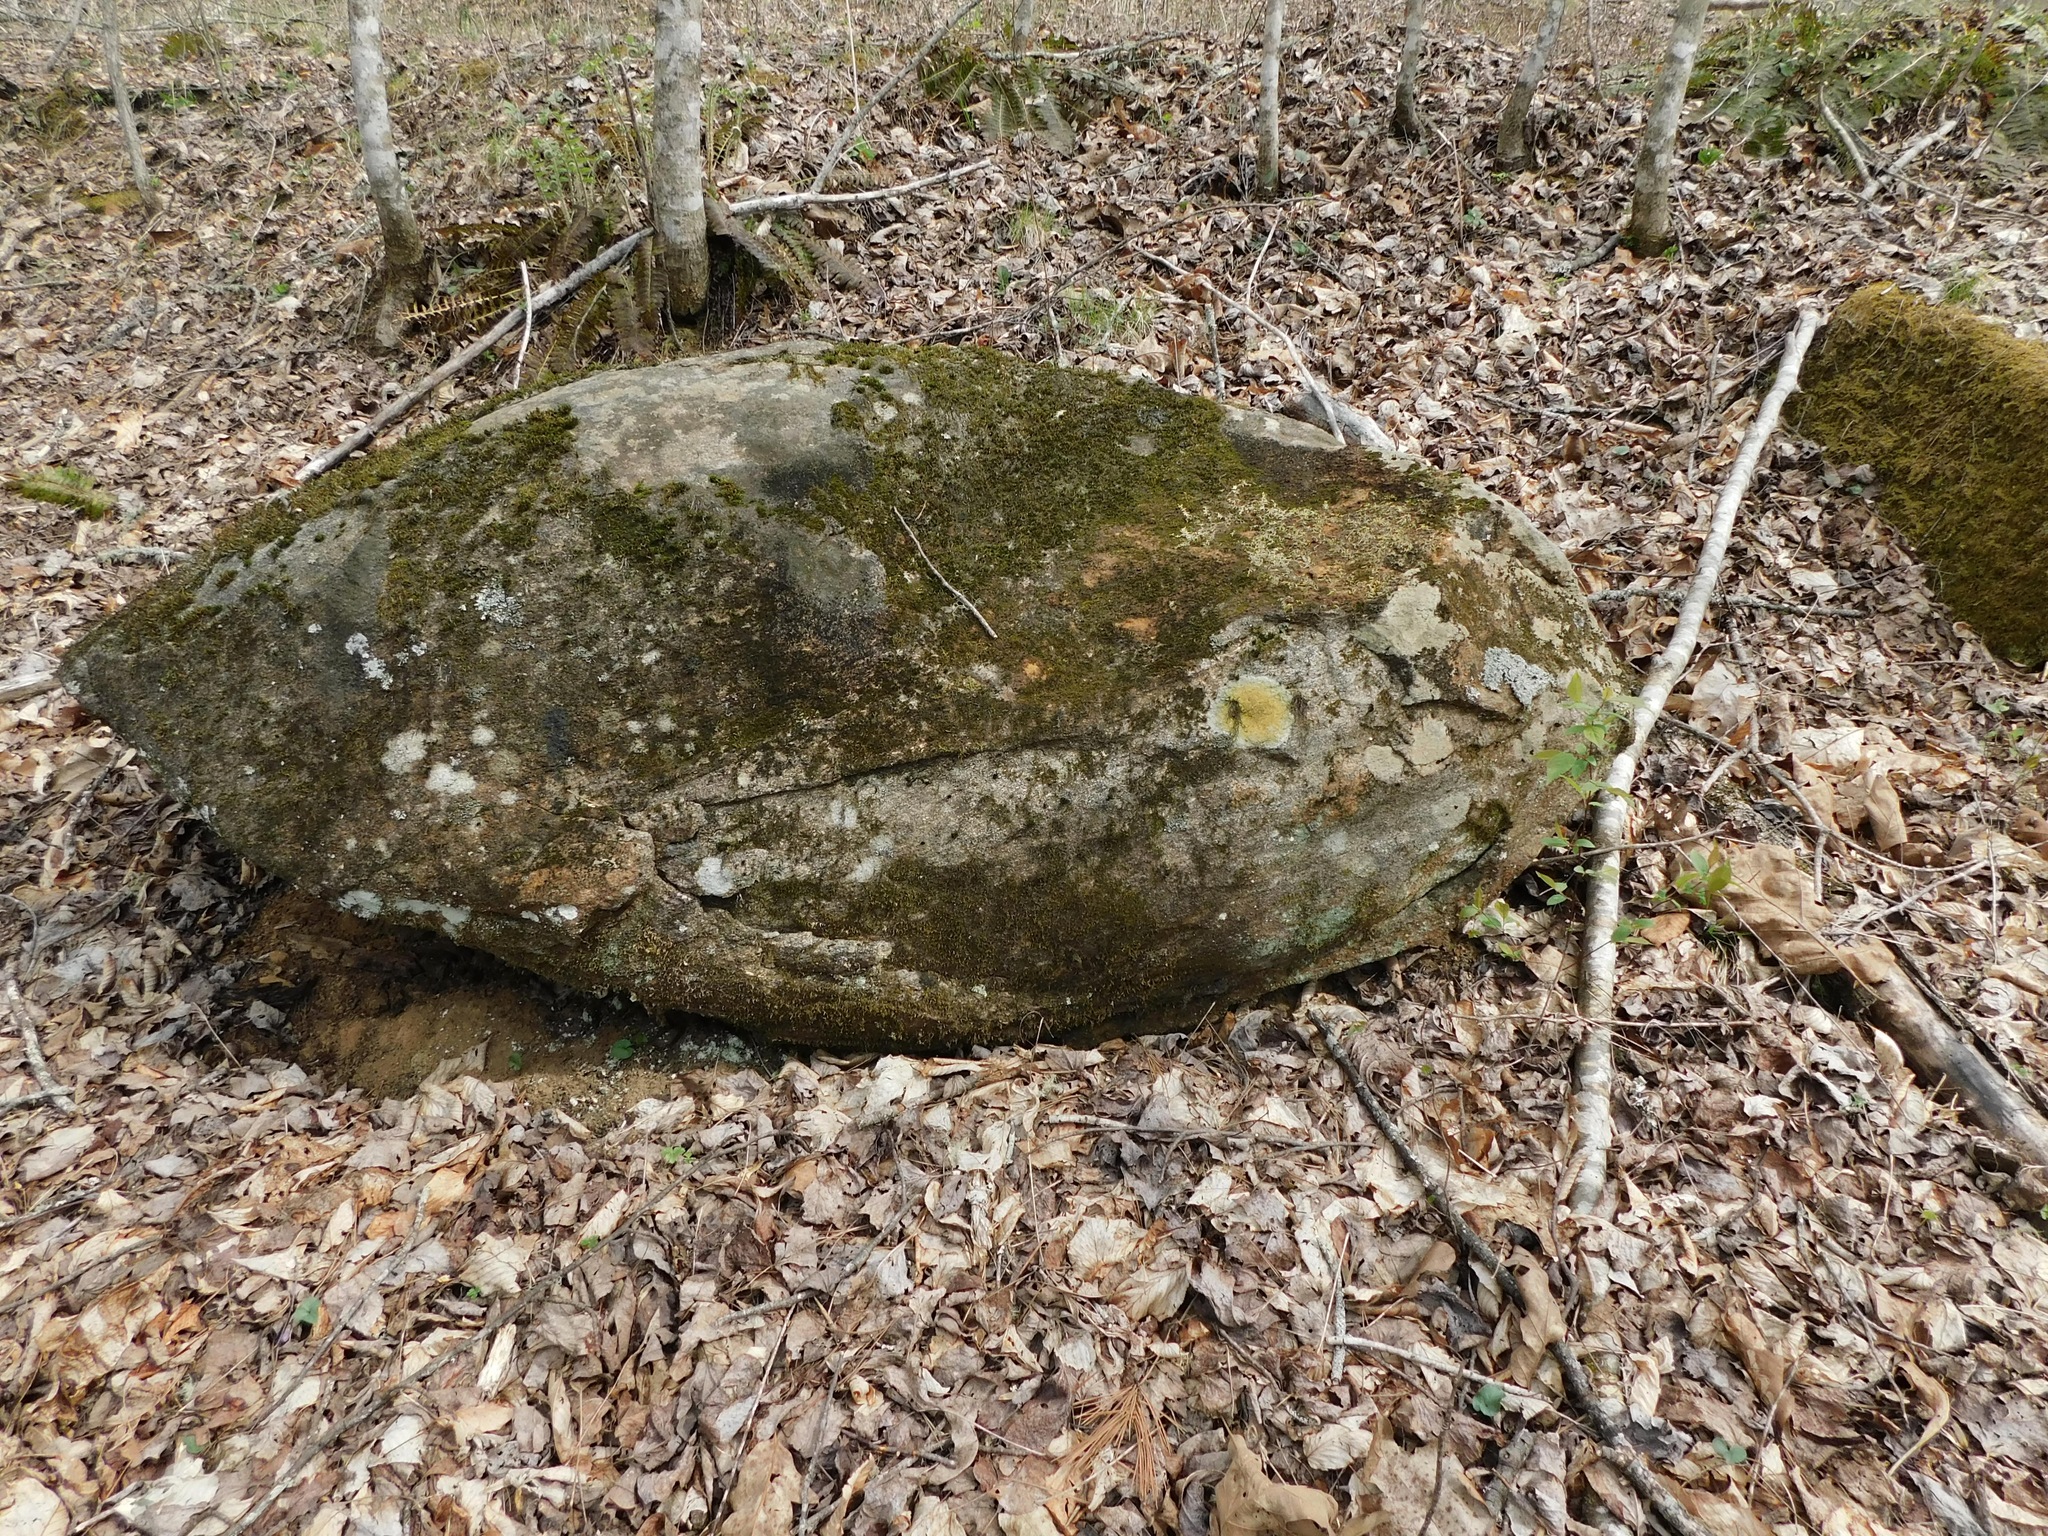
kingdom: Fungi
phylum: Ascomycota
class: Lecanoromycetes
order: Teloschistales
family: Teloschistaceae
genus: Gyalolechia
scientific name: Gyalolechia flavovirescens
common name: Sulphur firedot
